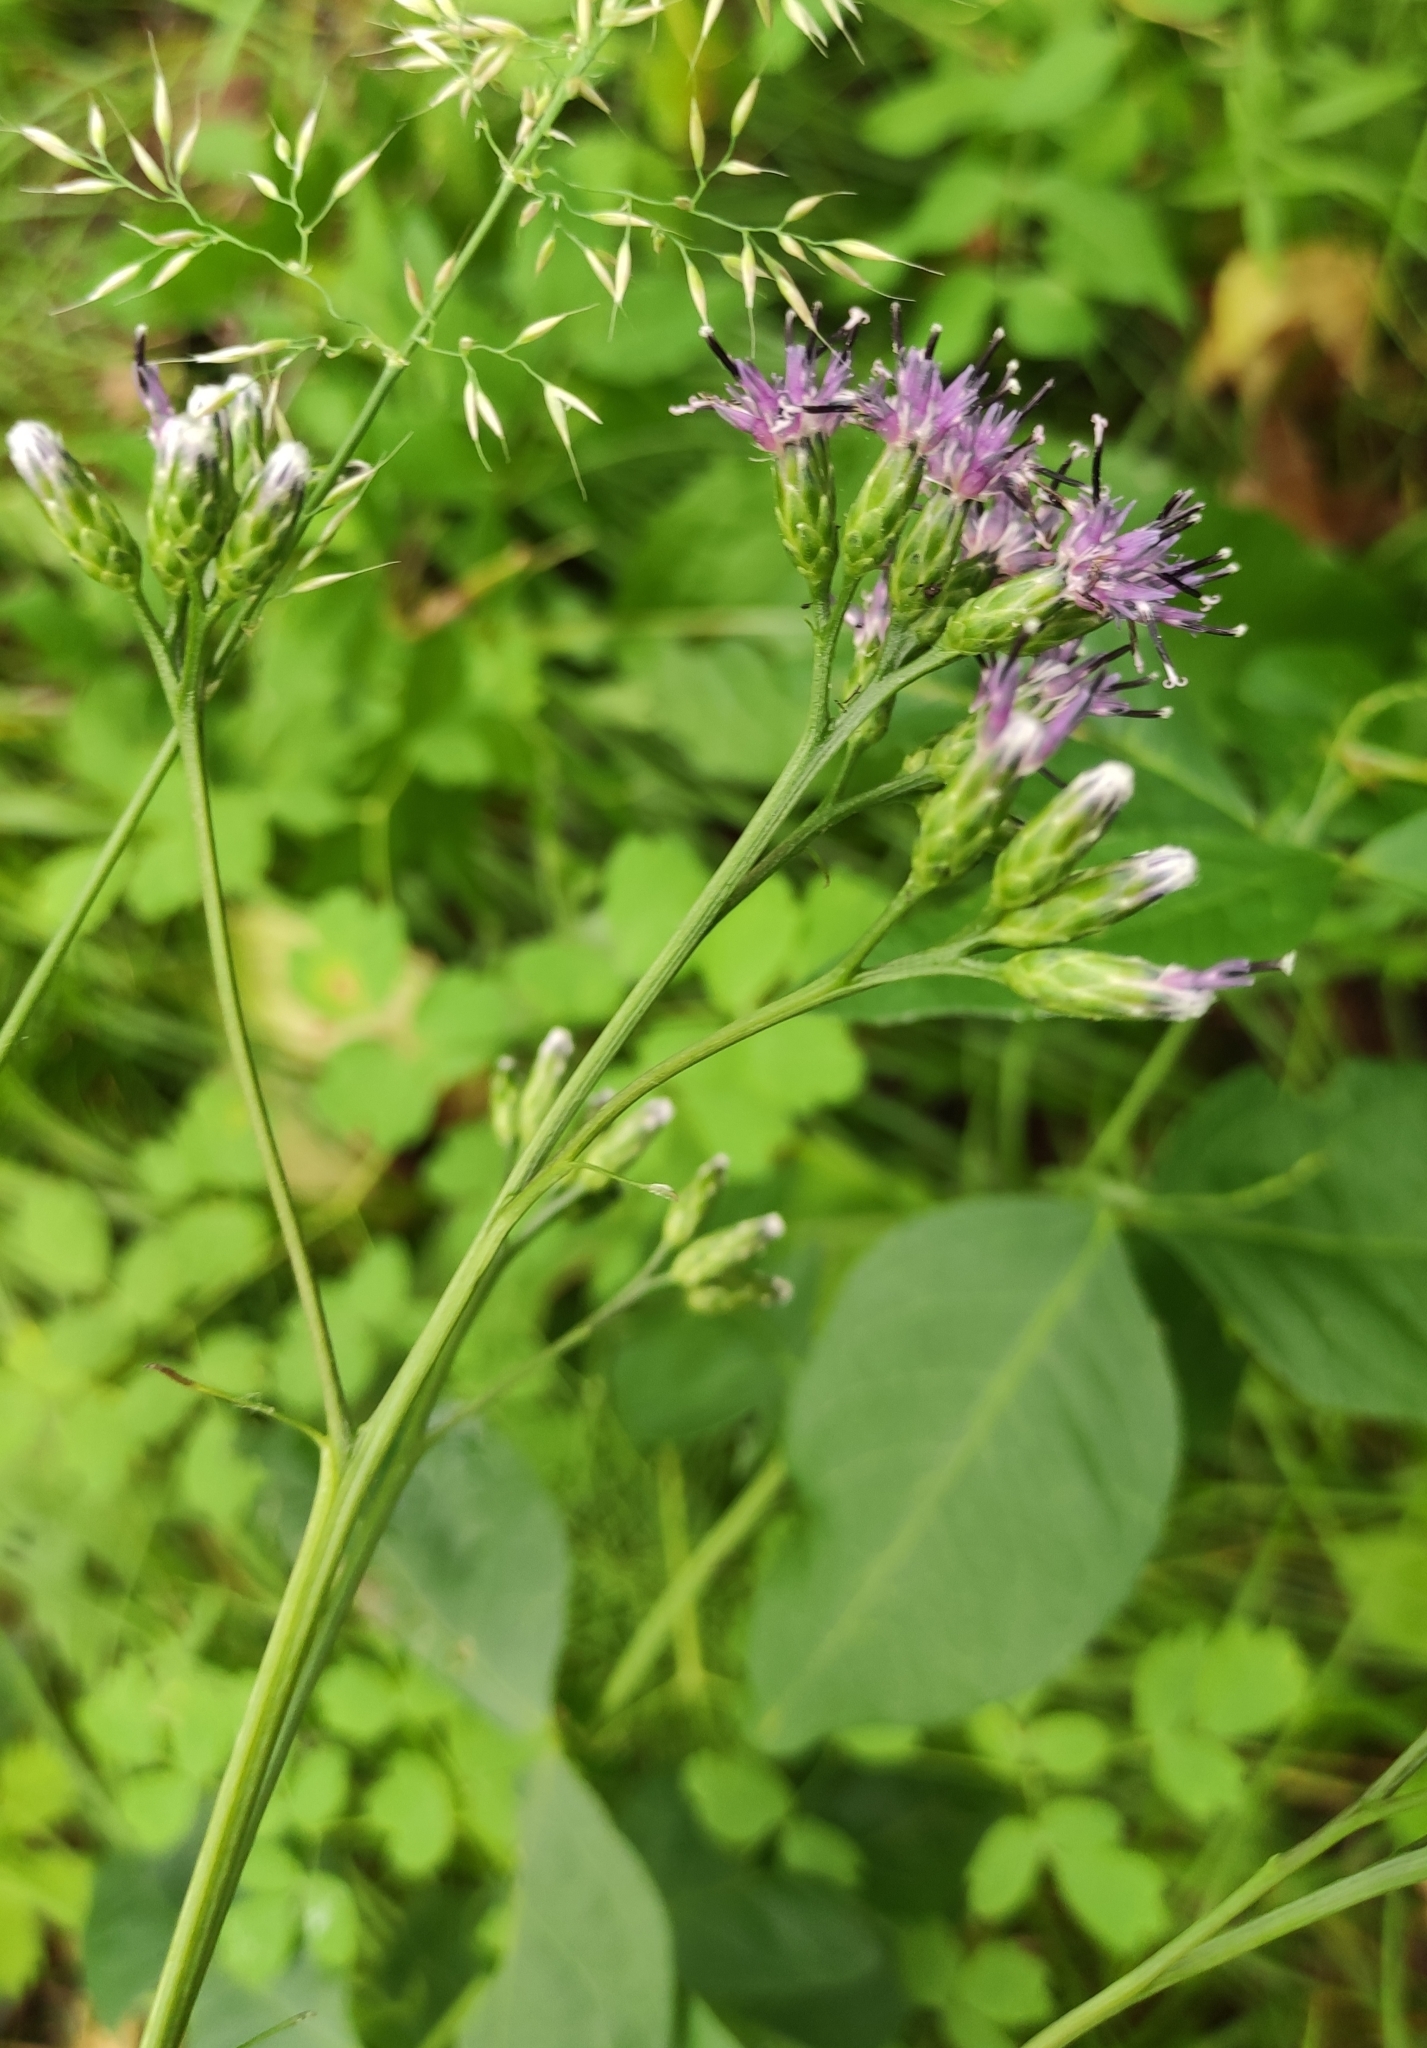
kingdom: Plantae
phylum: Tracheophyta
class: Magnoliopsida
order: Asterales
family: Asteraceae
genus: Saussurea
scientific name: Saussurea parviflora
